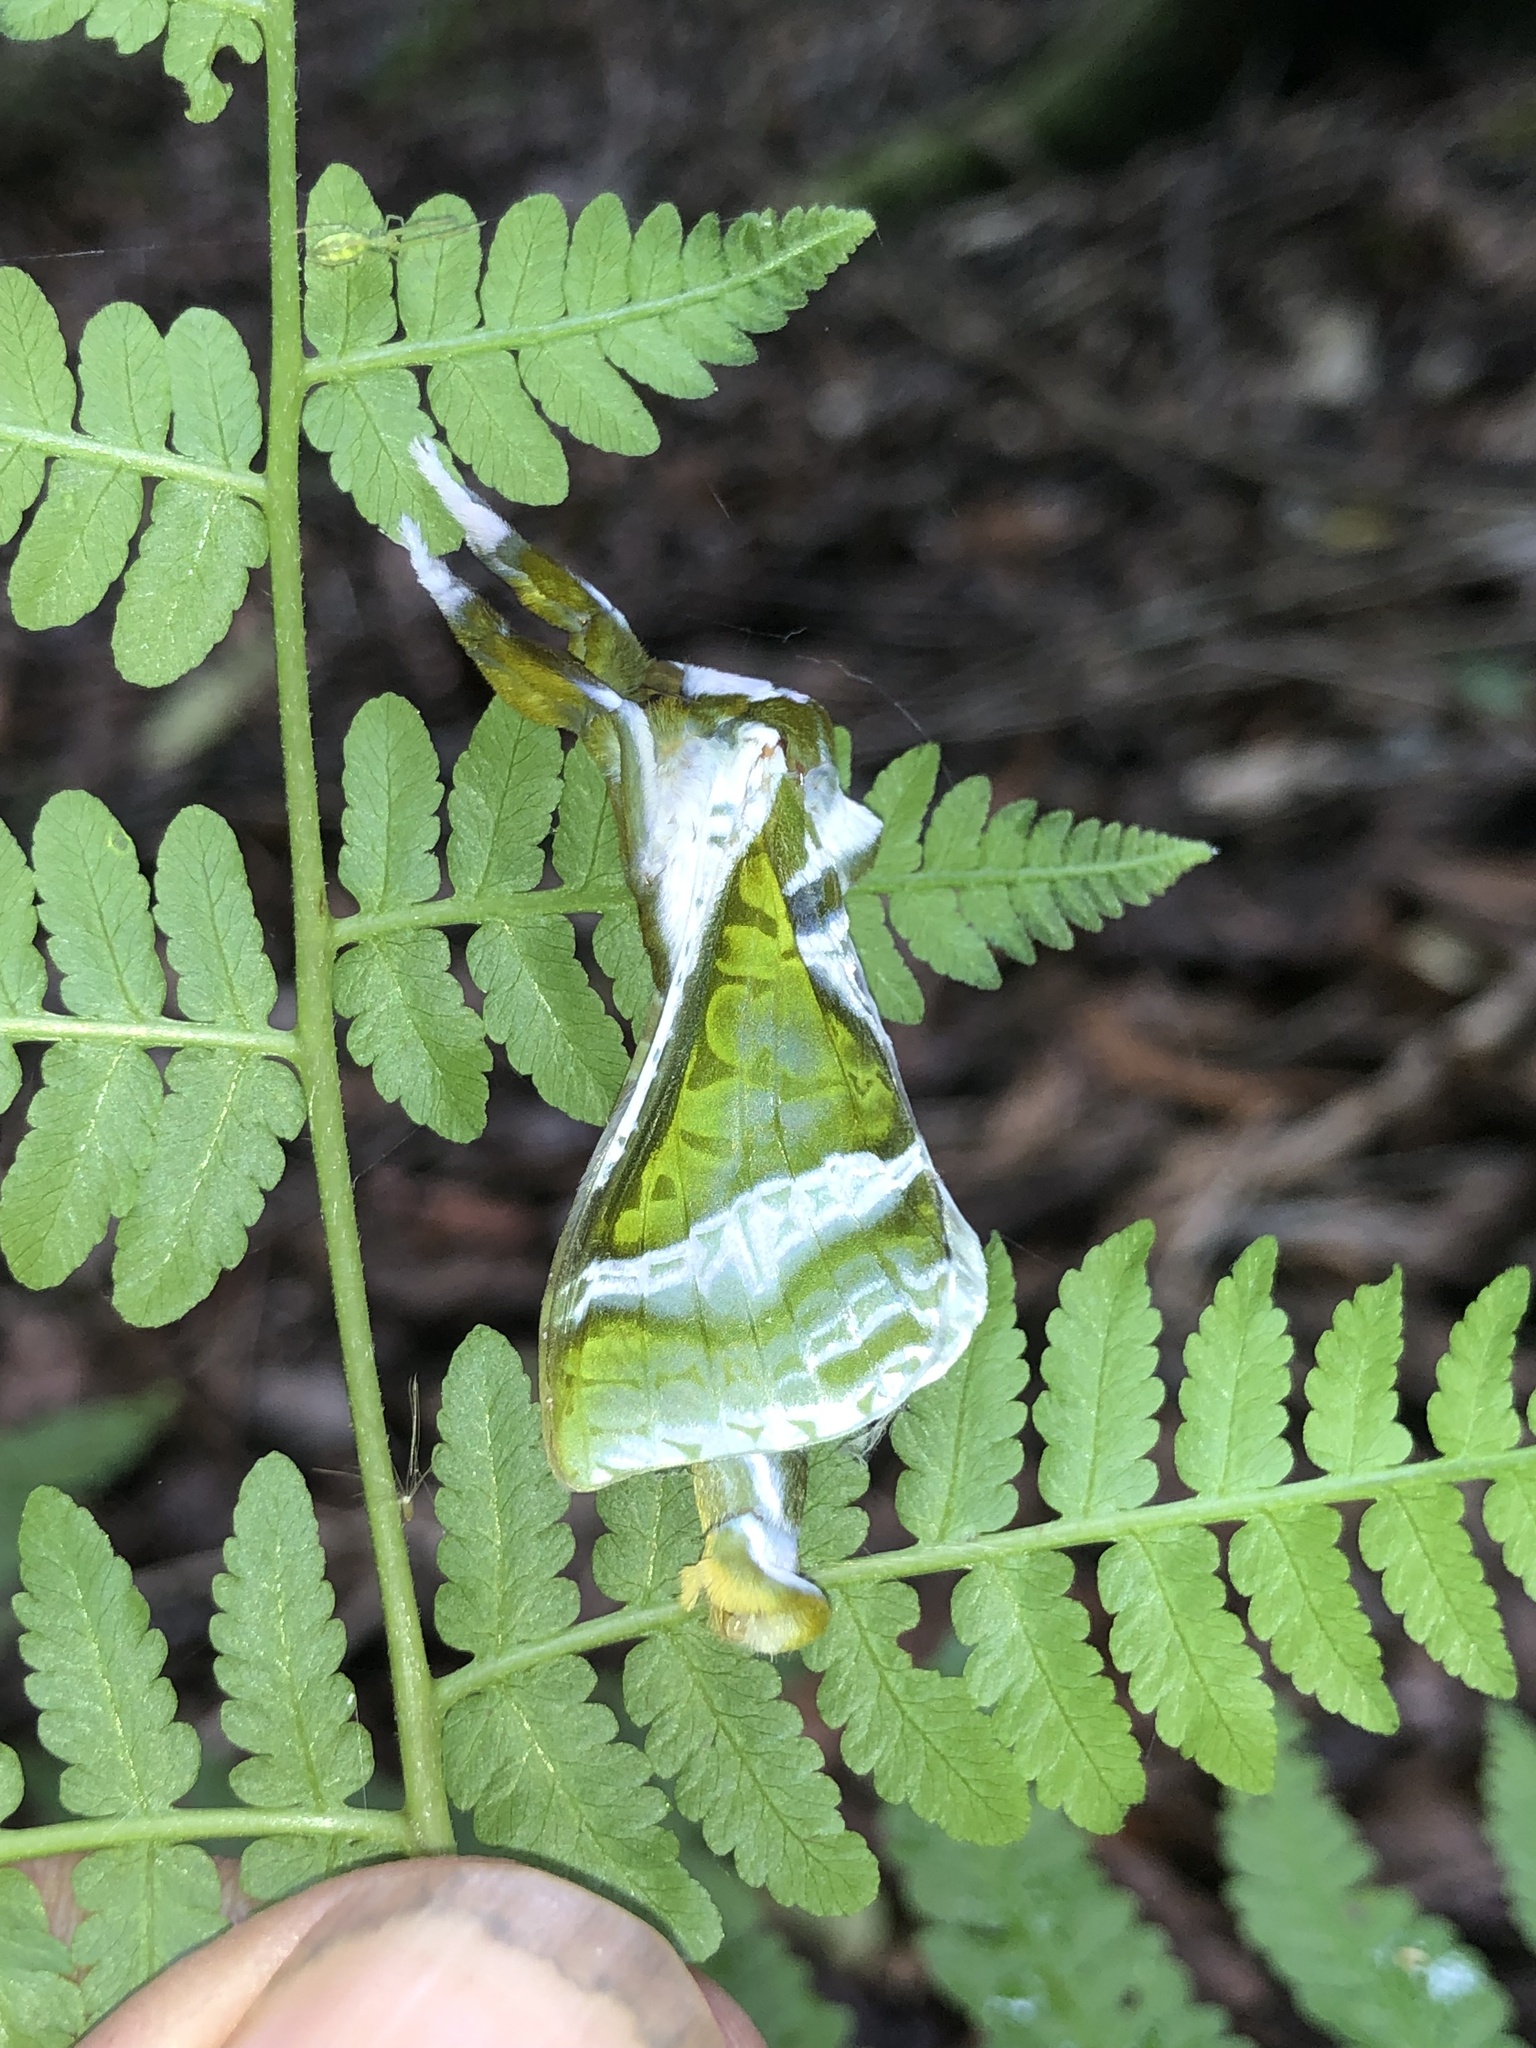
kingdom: Animalia
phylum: Arthropoda
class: Insecta
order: Lepidoptera
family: Hepialidae
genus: Aenetus
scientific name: Aenetus splendens
